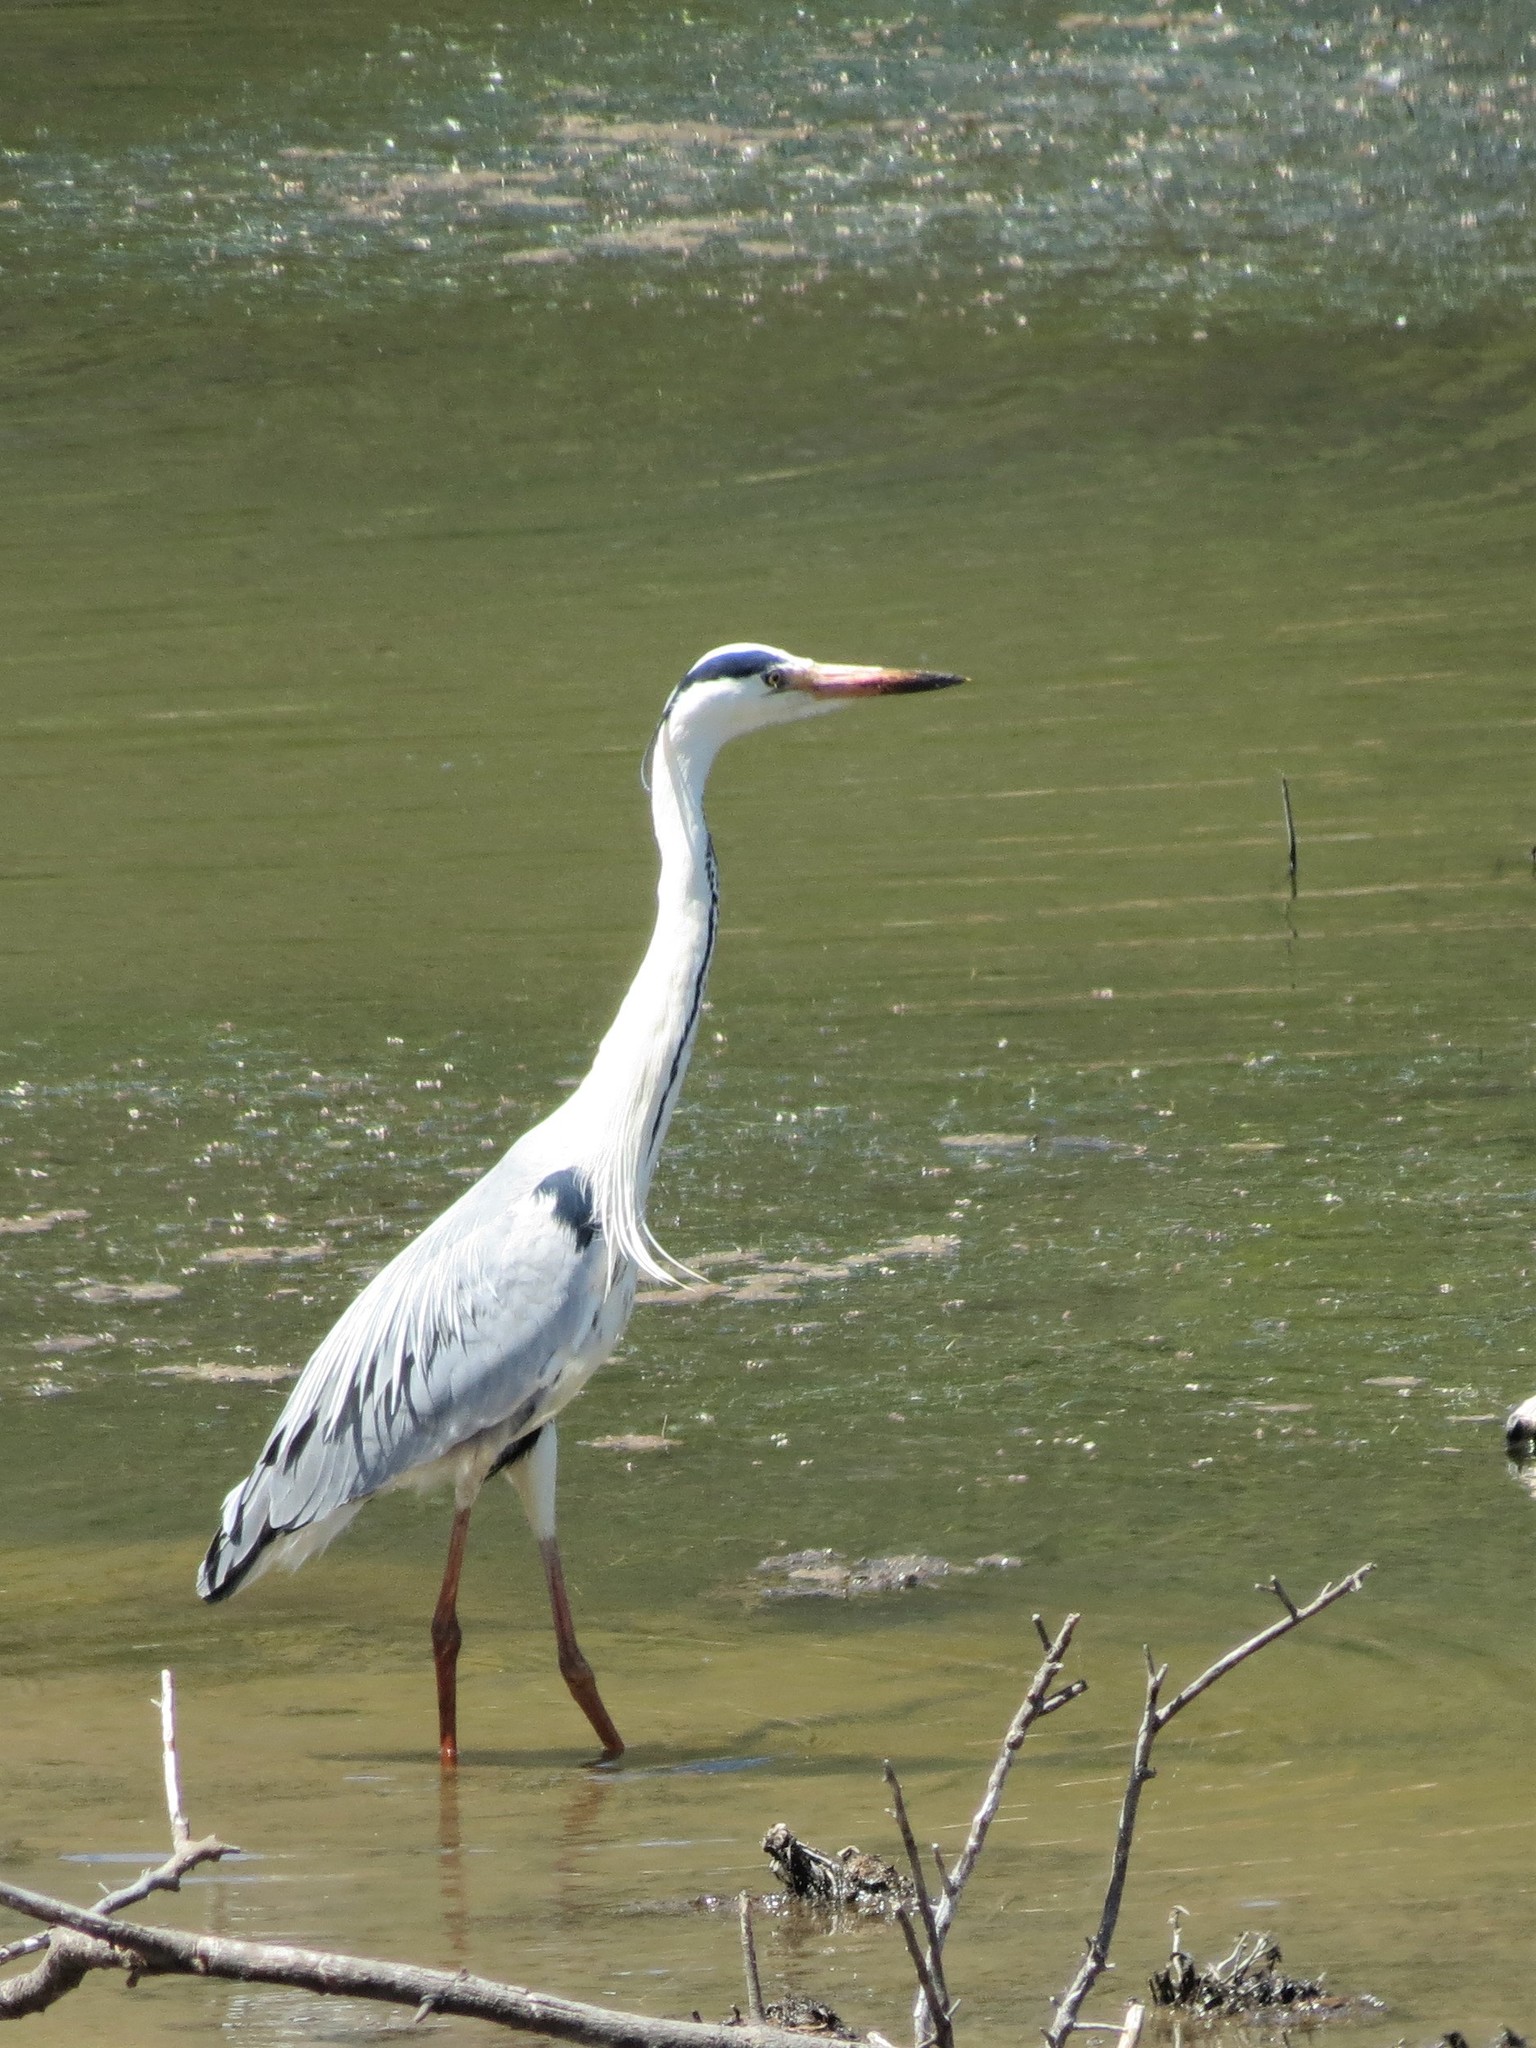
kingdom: Animalia
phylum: Chordata
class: Aves
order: Pelecaniformes
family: Ardeidae
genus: Ardea
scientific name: Ardea cinerea
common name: Grey heron
